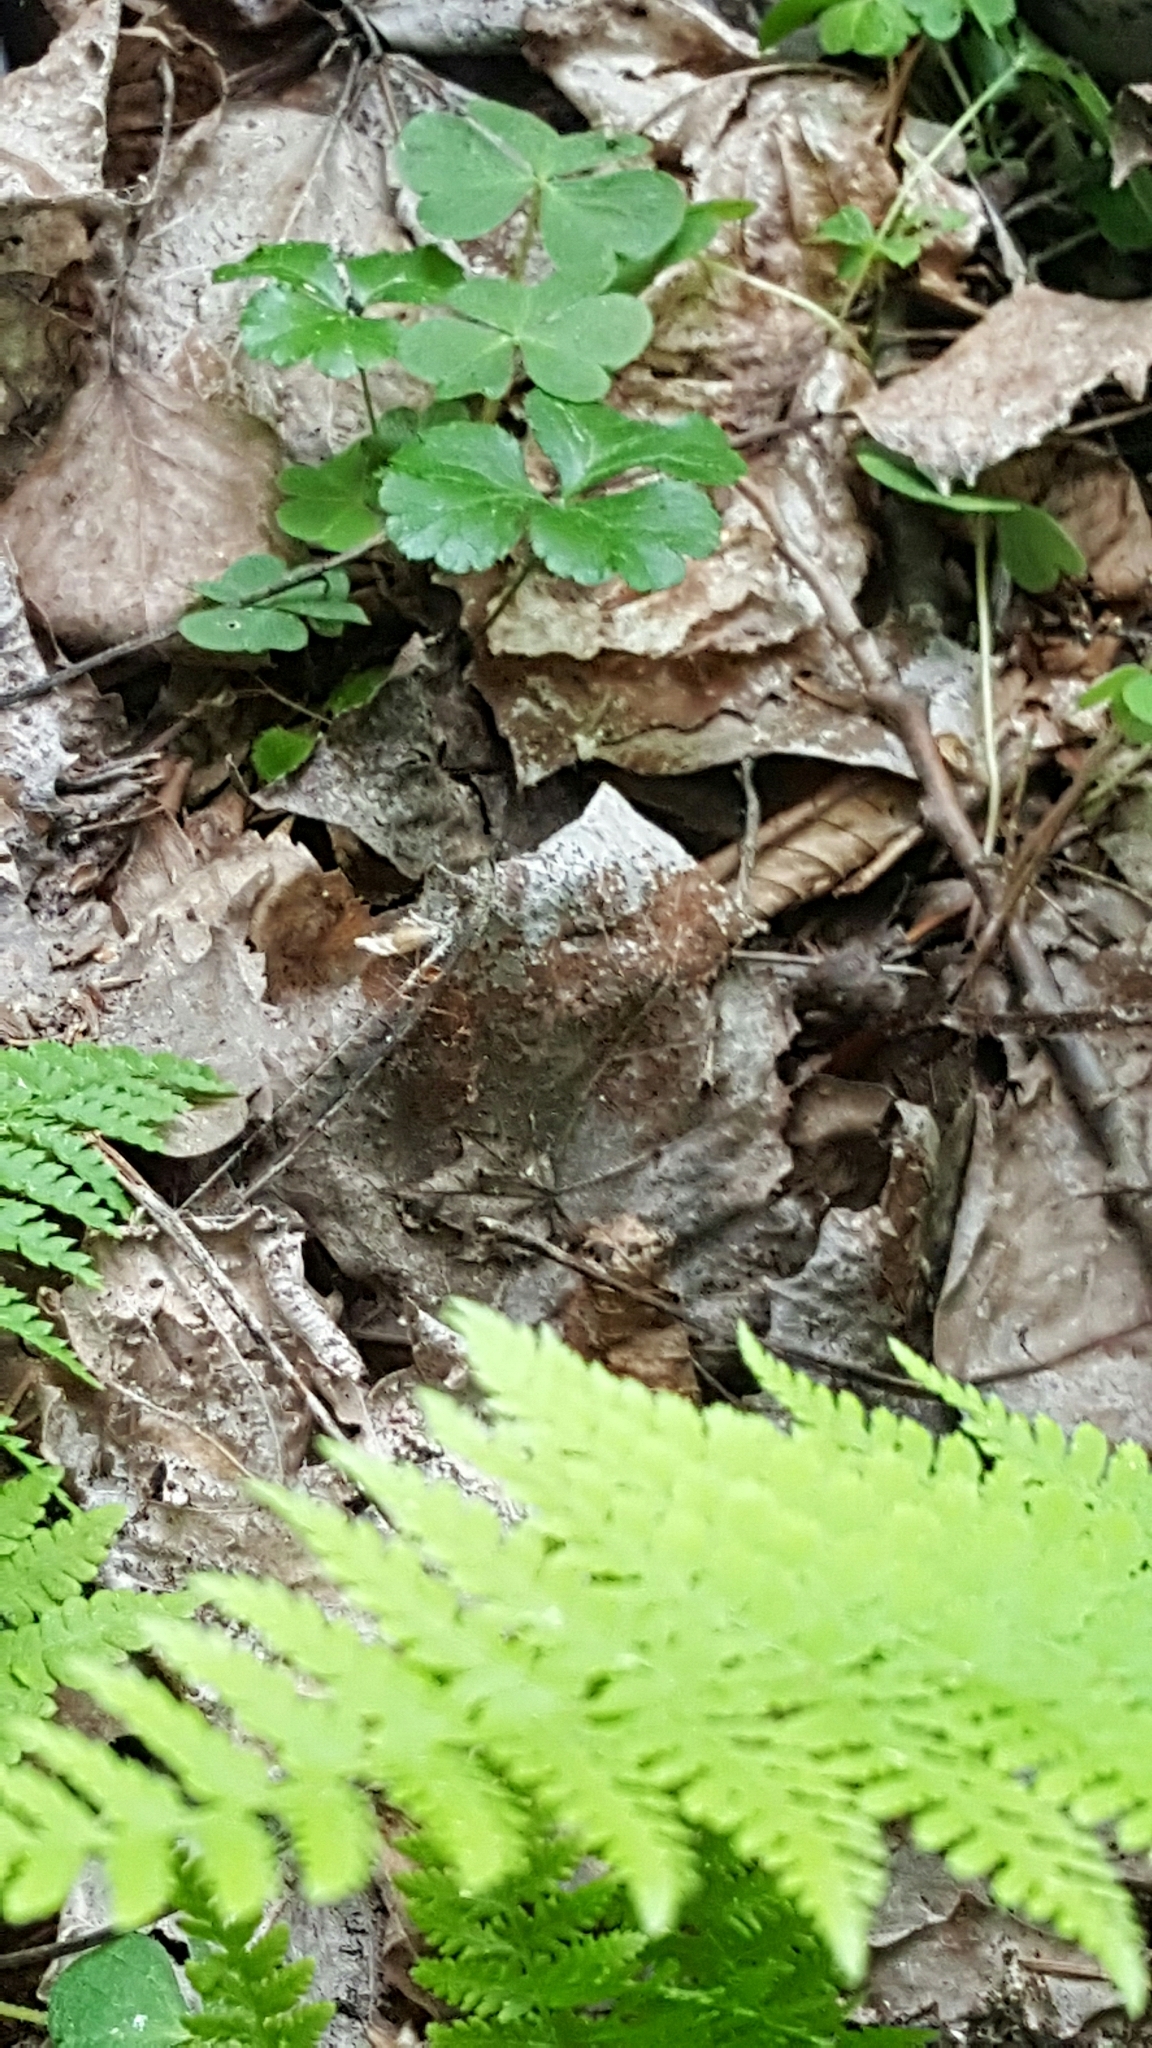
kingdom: Plantae
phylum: Tracheophyta
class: Magnoliopsida
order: Ranunculales
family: Ranunculaceae
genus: Coptis
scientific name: Coptis trifolia
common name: Canker-root
